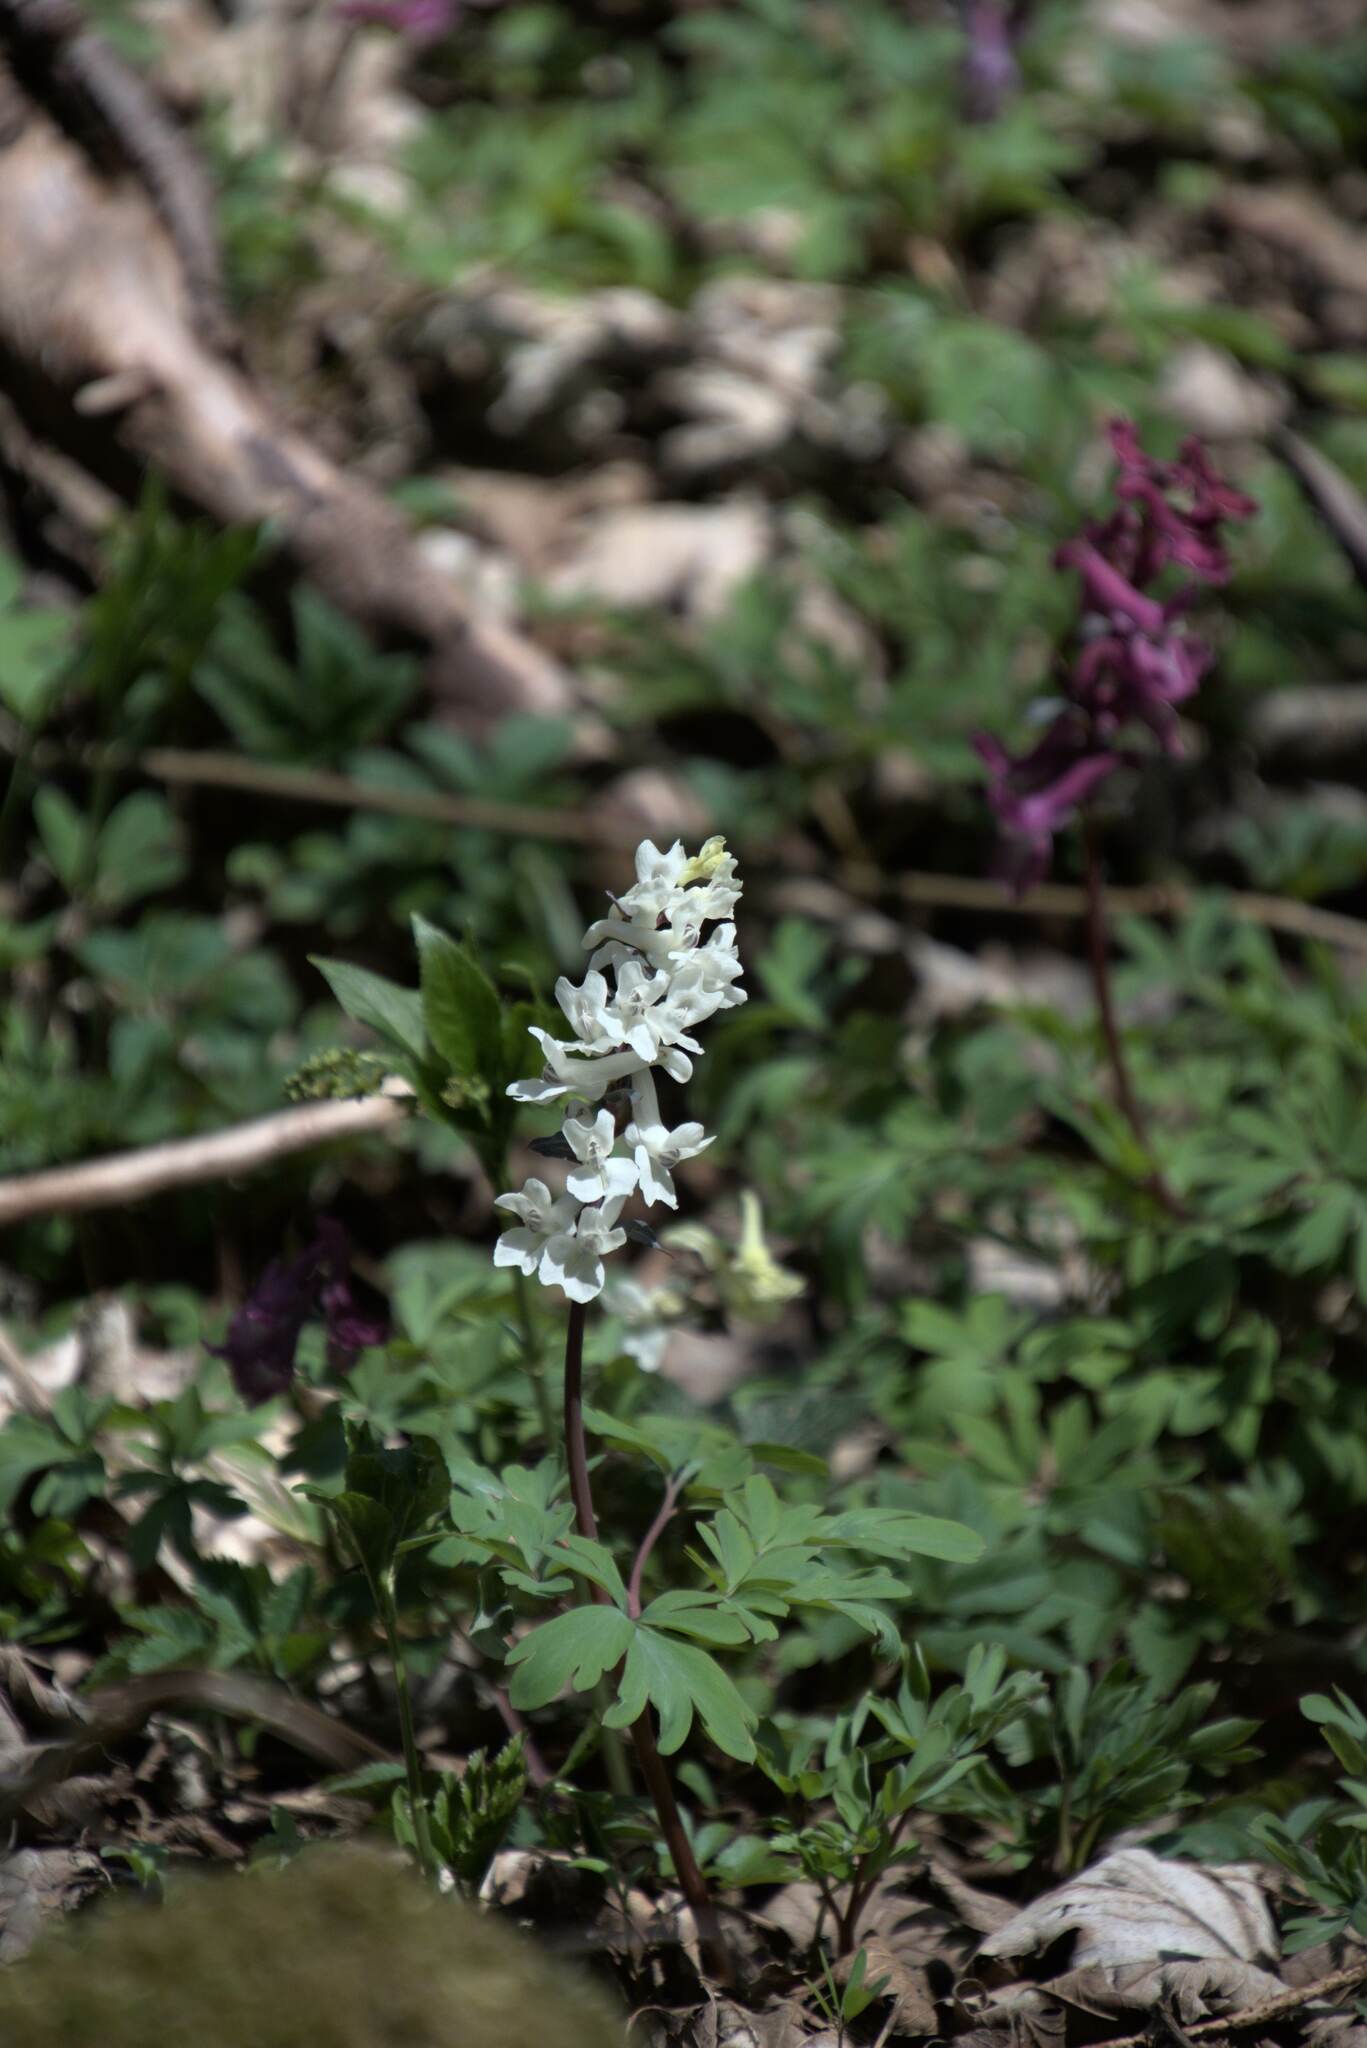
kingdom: Plantae
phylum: Tracheophyta
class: Magnoliopsida
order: Ranunculales
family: Papaveraceae
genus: Corydalis
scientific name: Corydalis cava
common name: Hollowroot
